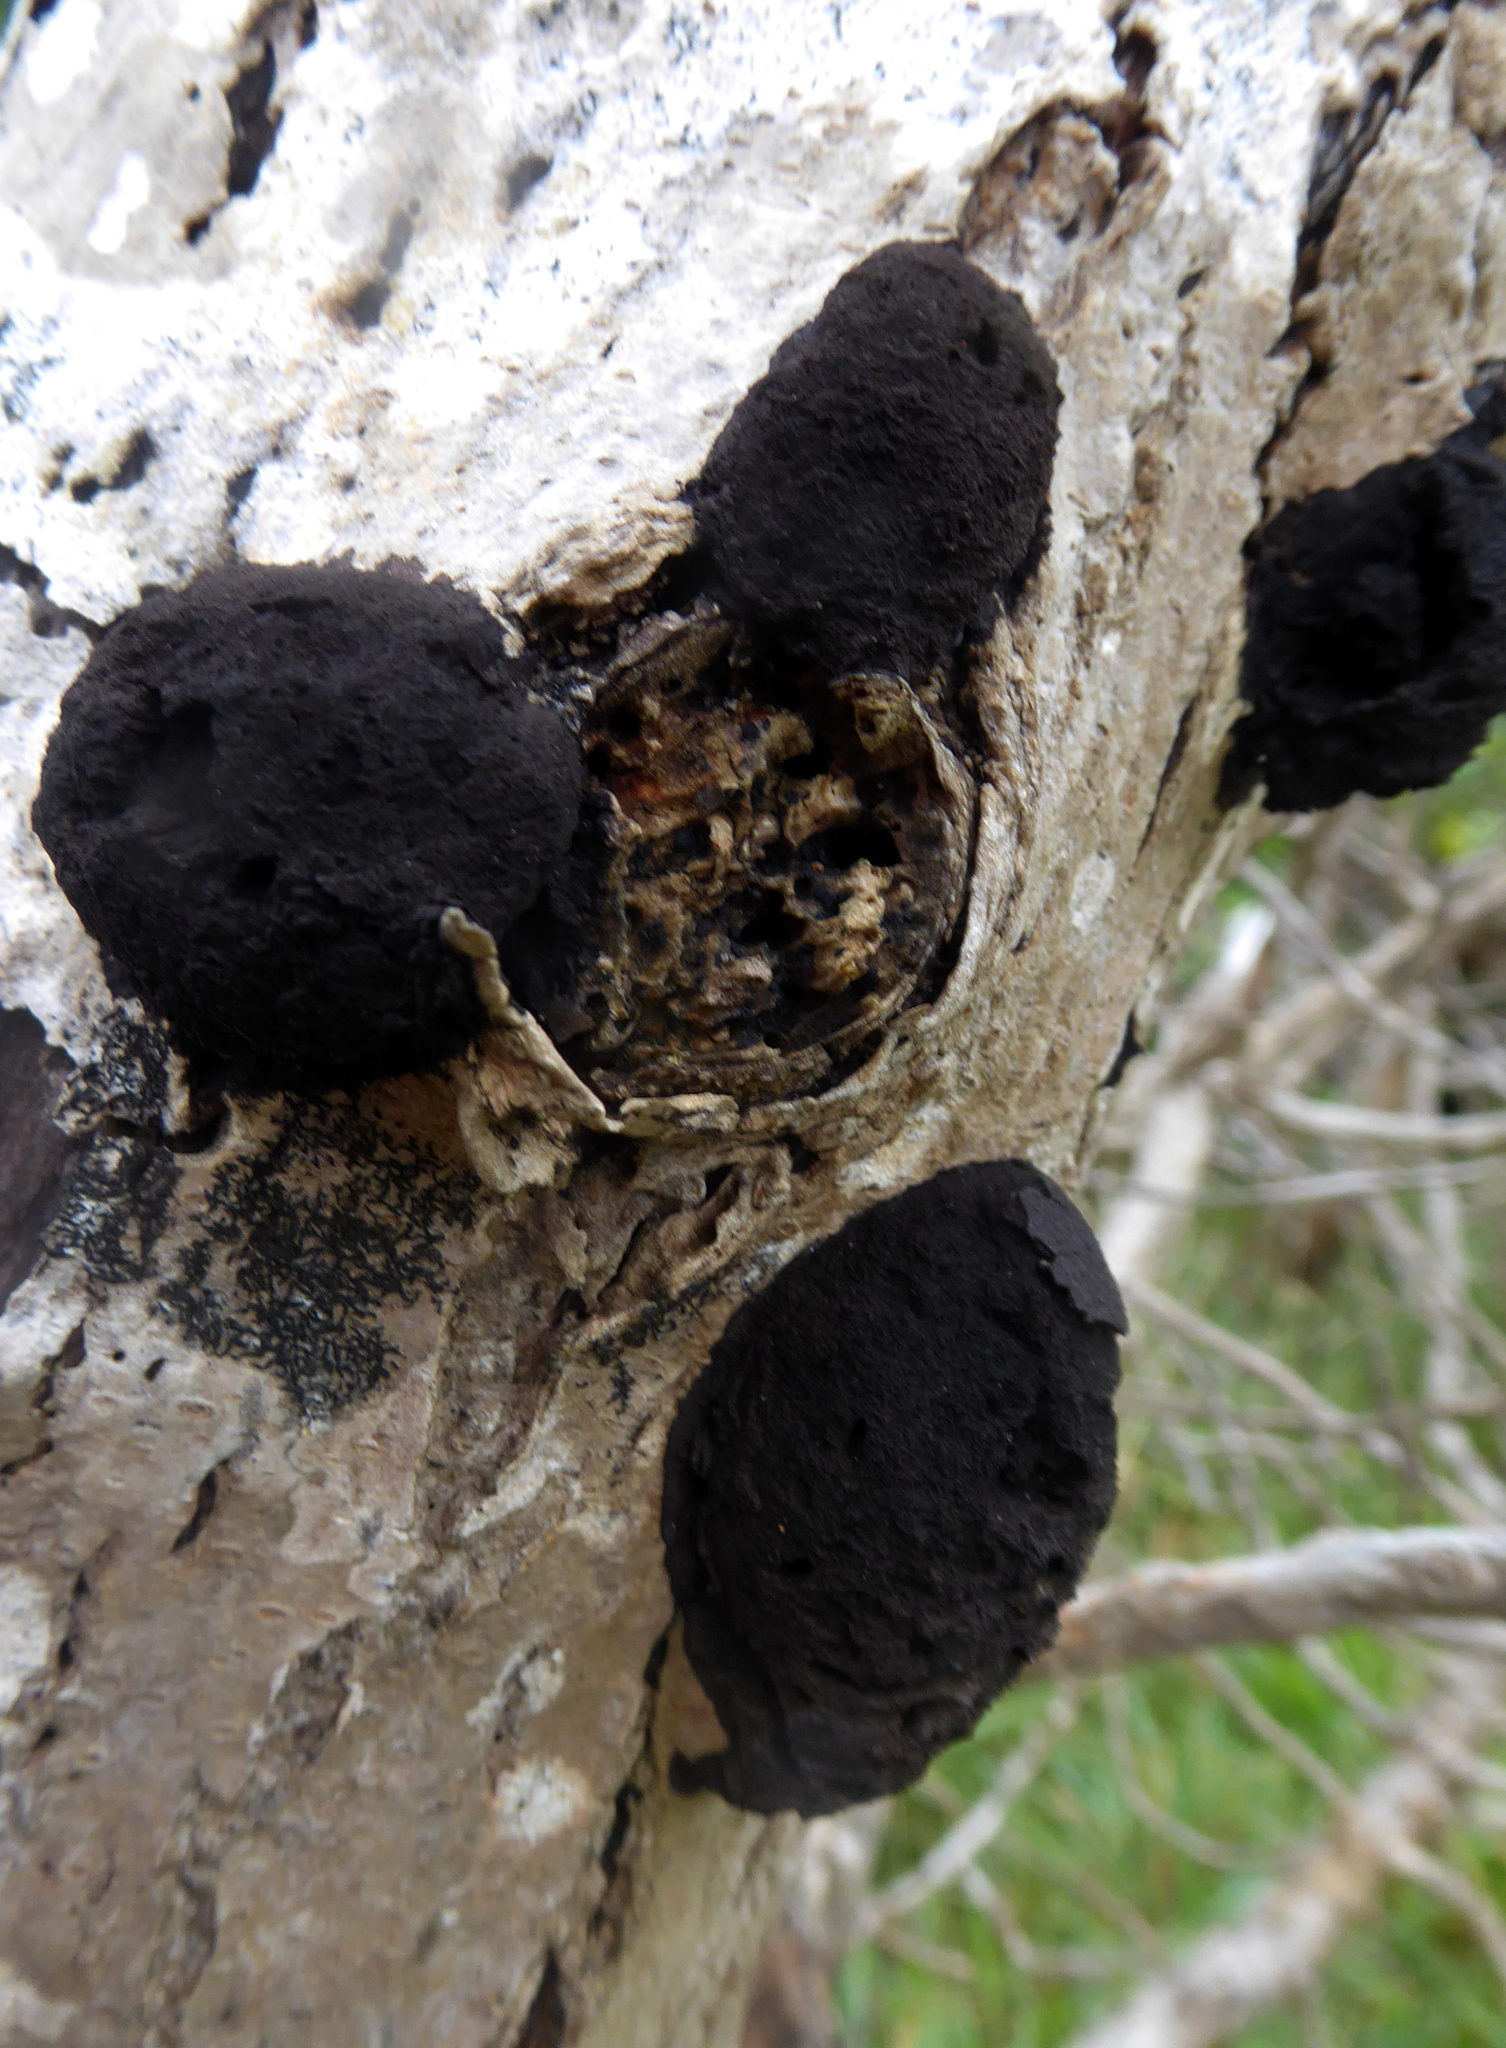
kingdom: Fungi
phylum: Ascomycota
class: Sordariomycetes
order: Xylariales
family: Hypoxylaceae
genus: Daldinia
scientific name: Daldinia
